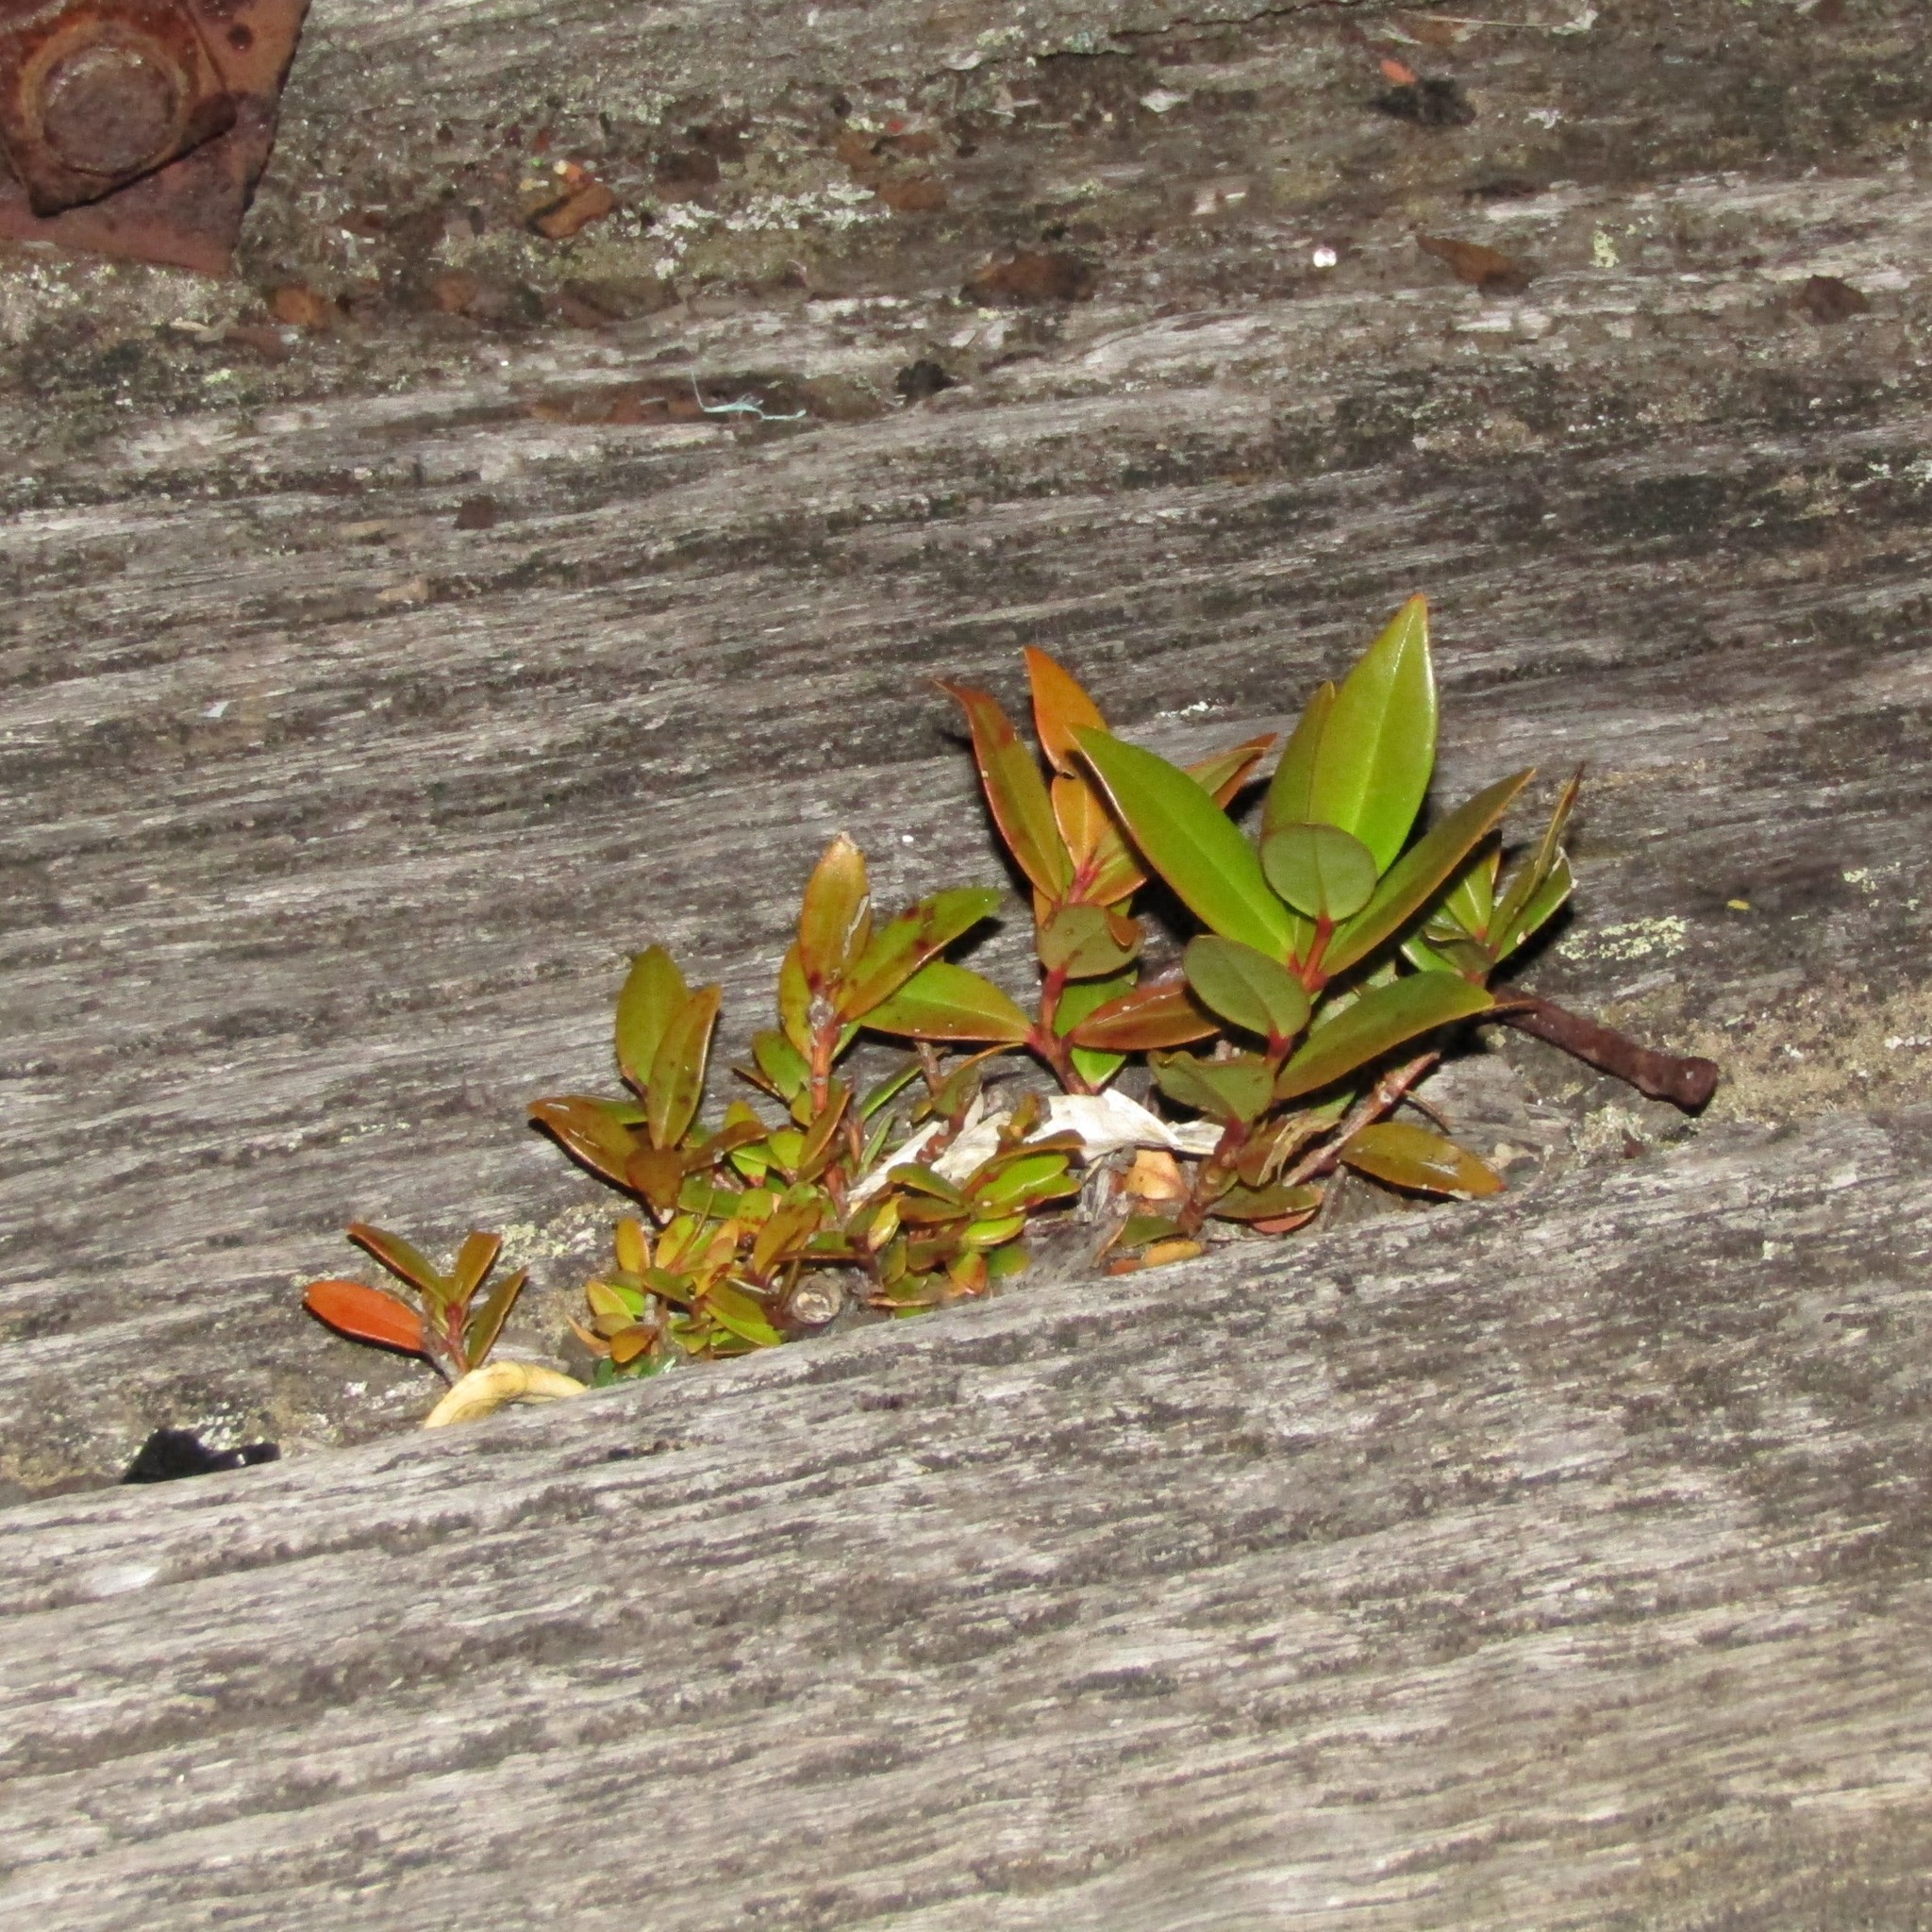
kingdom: Plantae
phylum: Tracheophyta
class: Magnoliopsida
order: Myrtales
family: Myrtaceae
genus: Metrosideros
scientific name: Metrosideros excelsa
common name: New zealand christmastree
